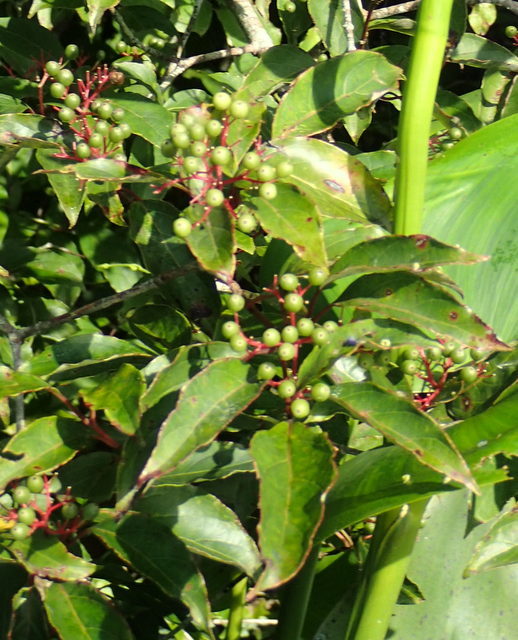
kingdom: Plantae
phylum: Tracheophyta
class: Magnoliopsida
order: Cornales
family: Cornaceae
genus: Cornus
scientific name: Cornus foemina
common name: Swamp dogwood
